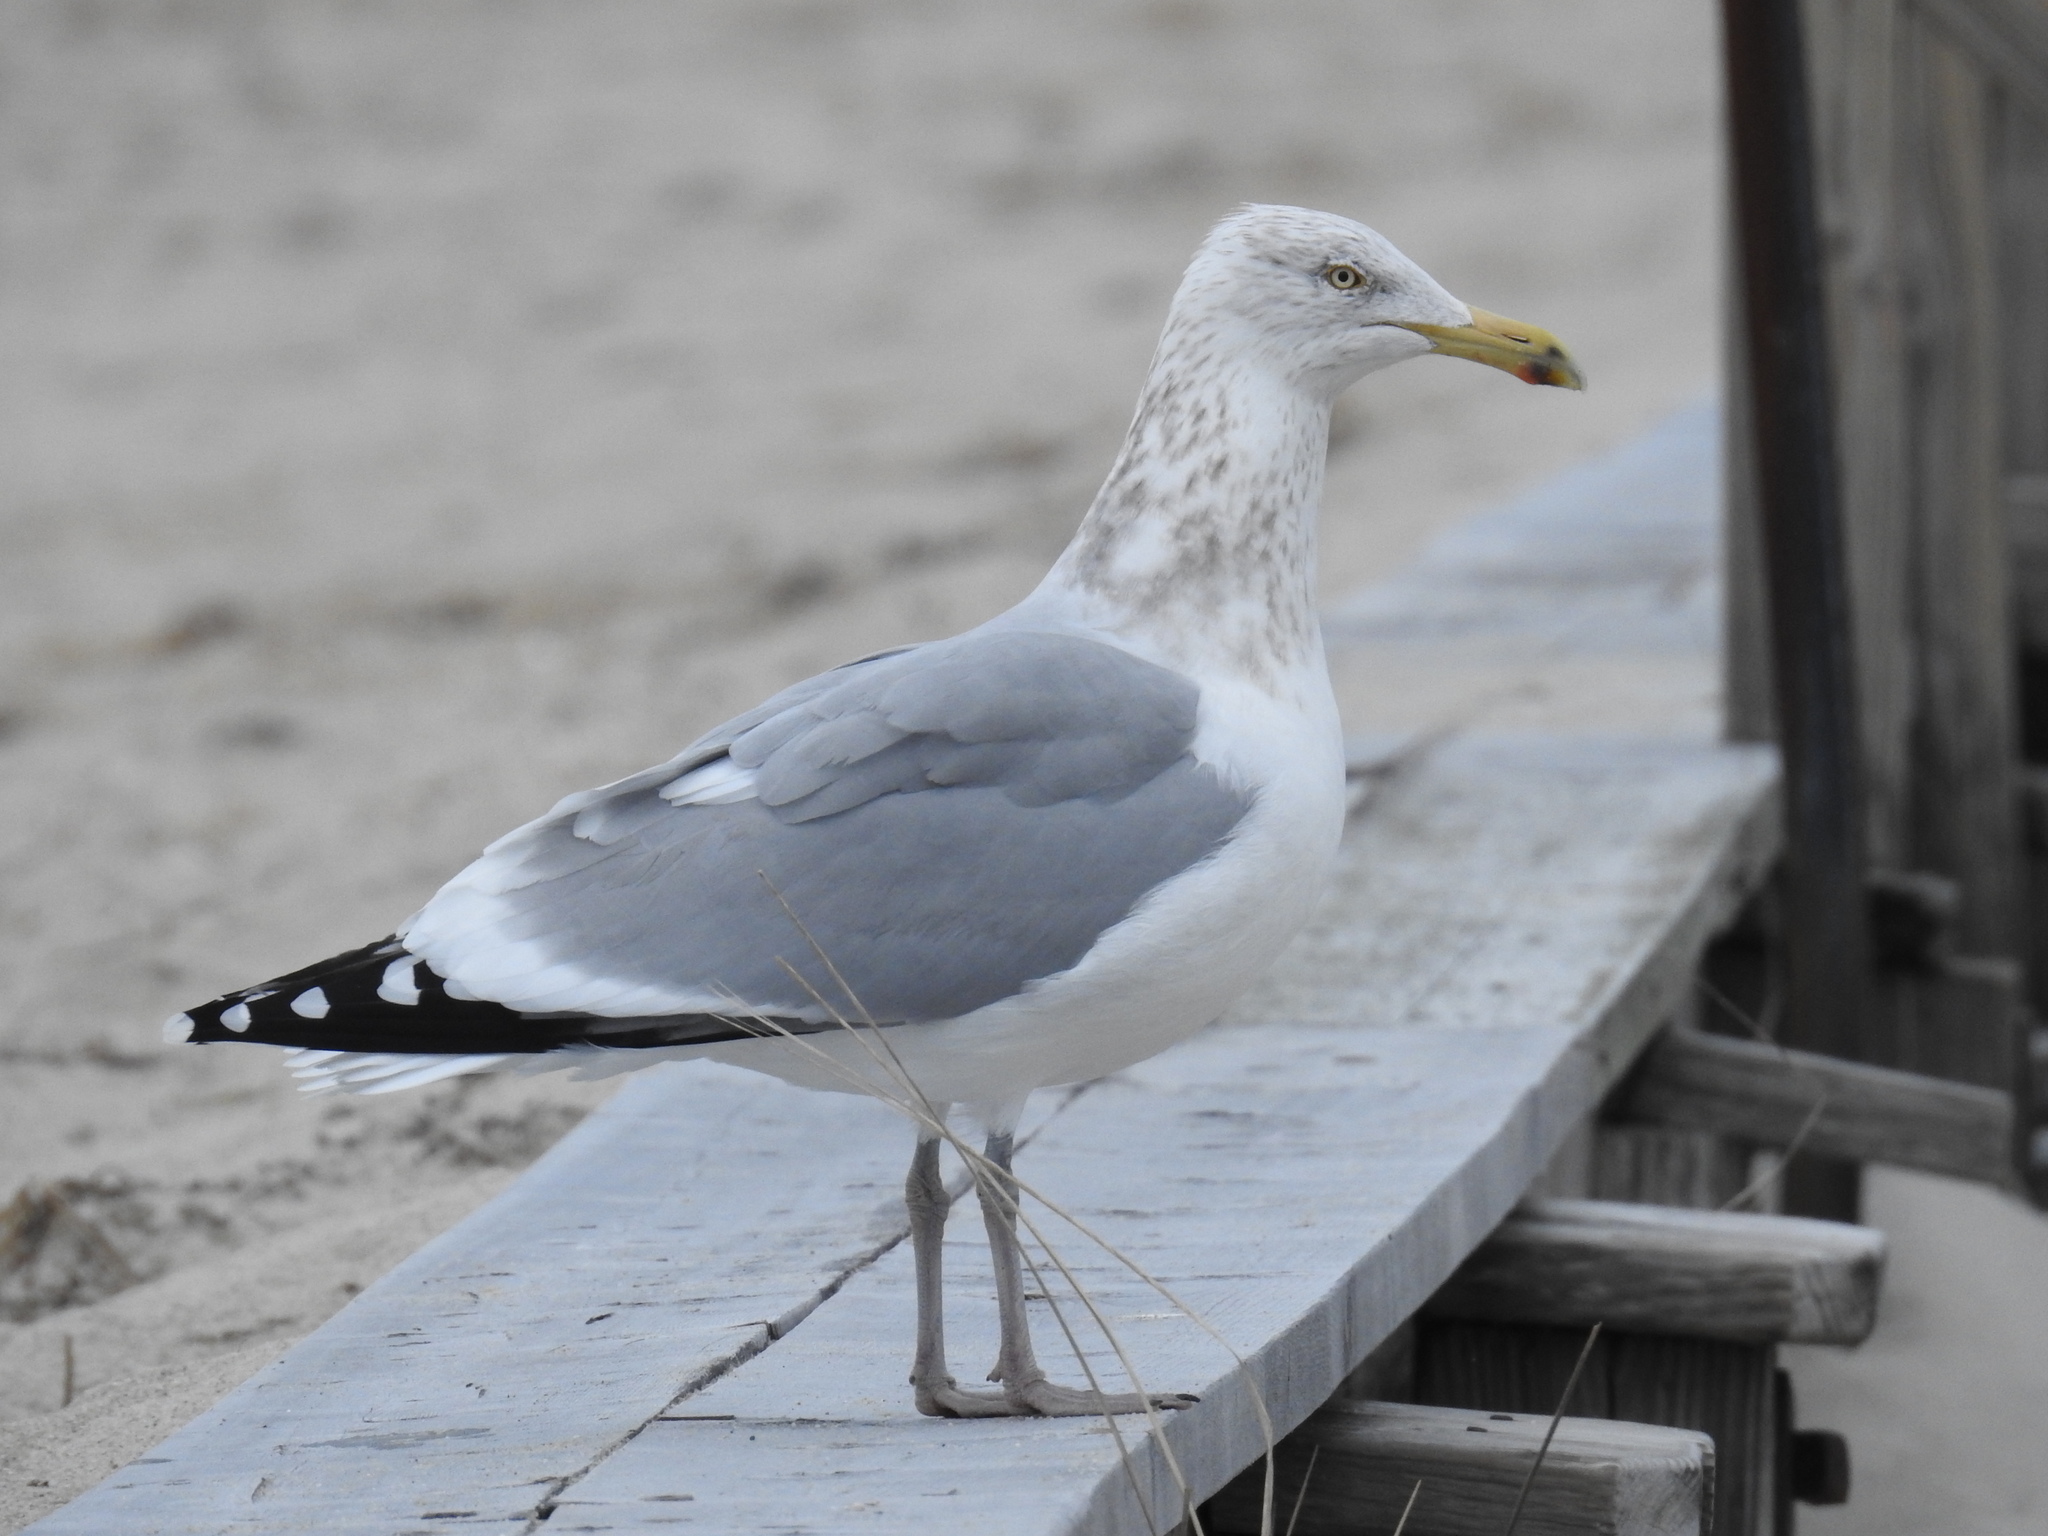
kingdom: Animalia
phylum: Chordata
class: Aves
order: Charadriiformes
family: Laridae
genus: Larus
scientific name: Larus argentatus
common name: Herring gull
